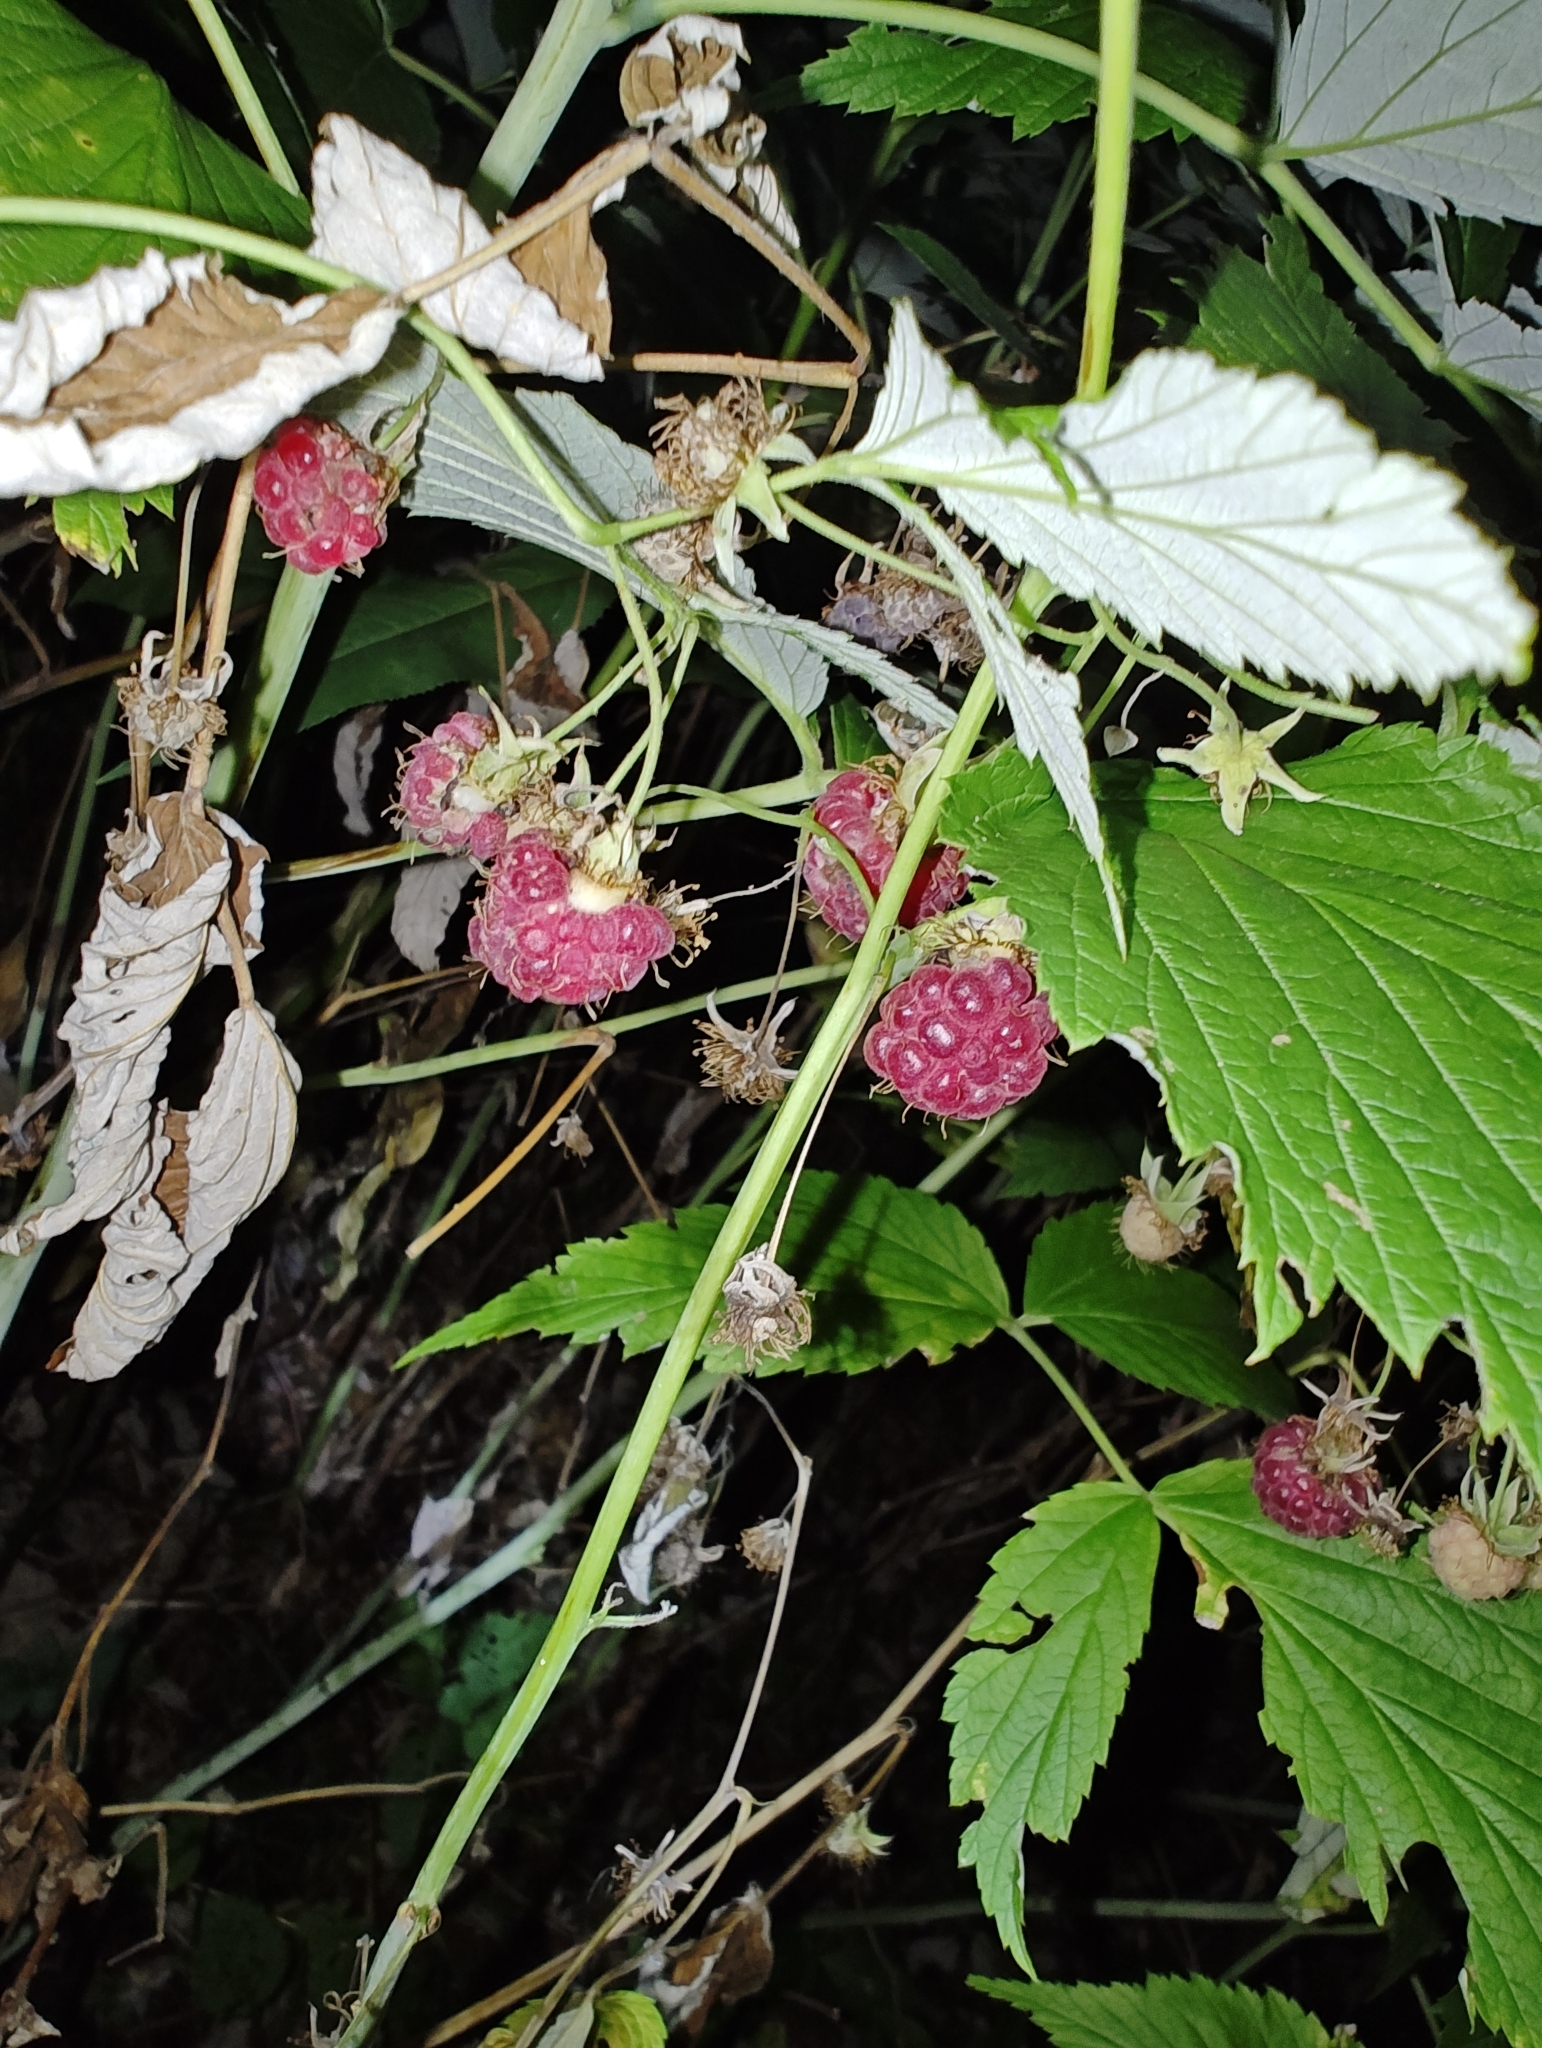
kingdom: Plantae
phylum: Tracheophyta
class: Magnoliopsida
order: Rosales
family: Rosaceae
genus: Rubus
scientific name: Rubus idaeus
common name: Raspberry
